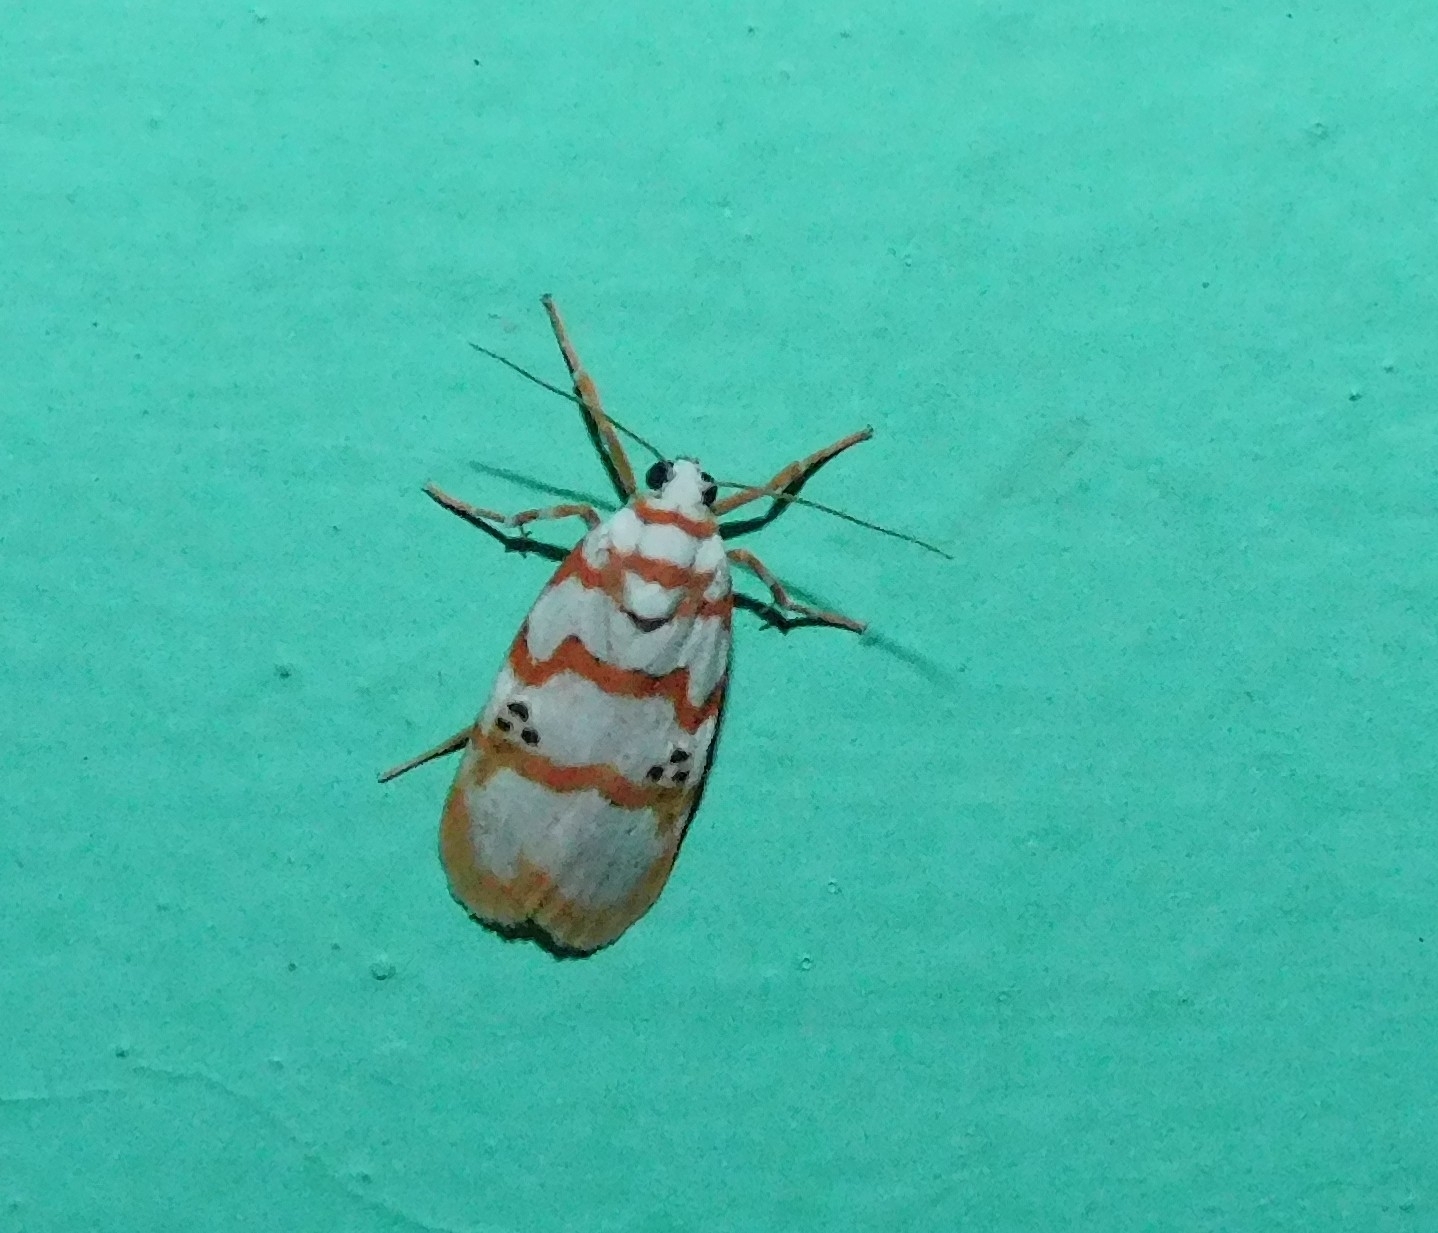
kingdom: Animalia
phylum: Arthropoda
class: Insecta
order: Lepidoptera
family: Erebidae
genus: Cyana
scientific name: Cyana puella
